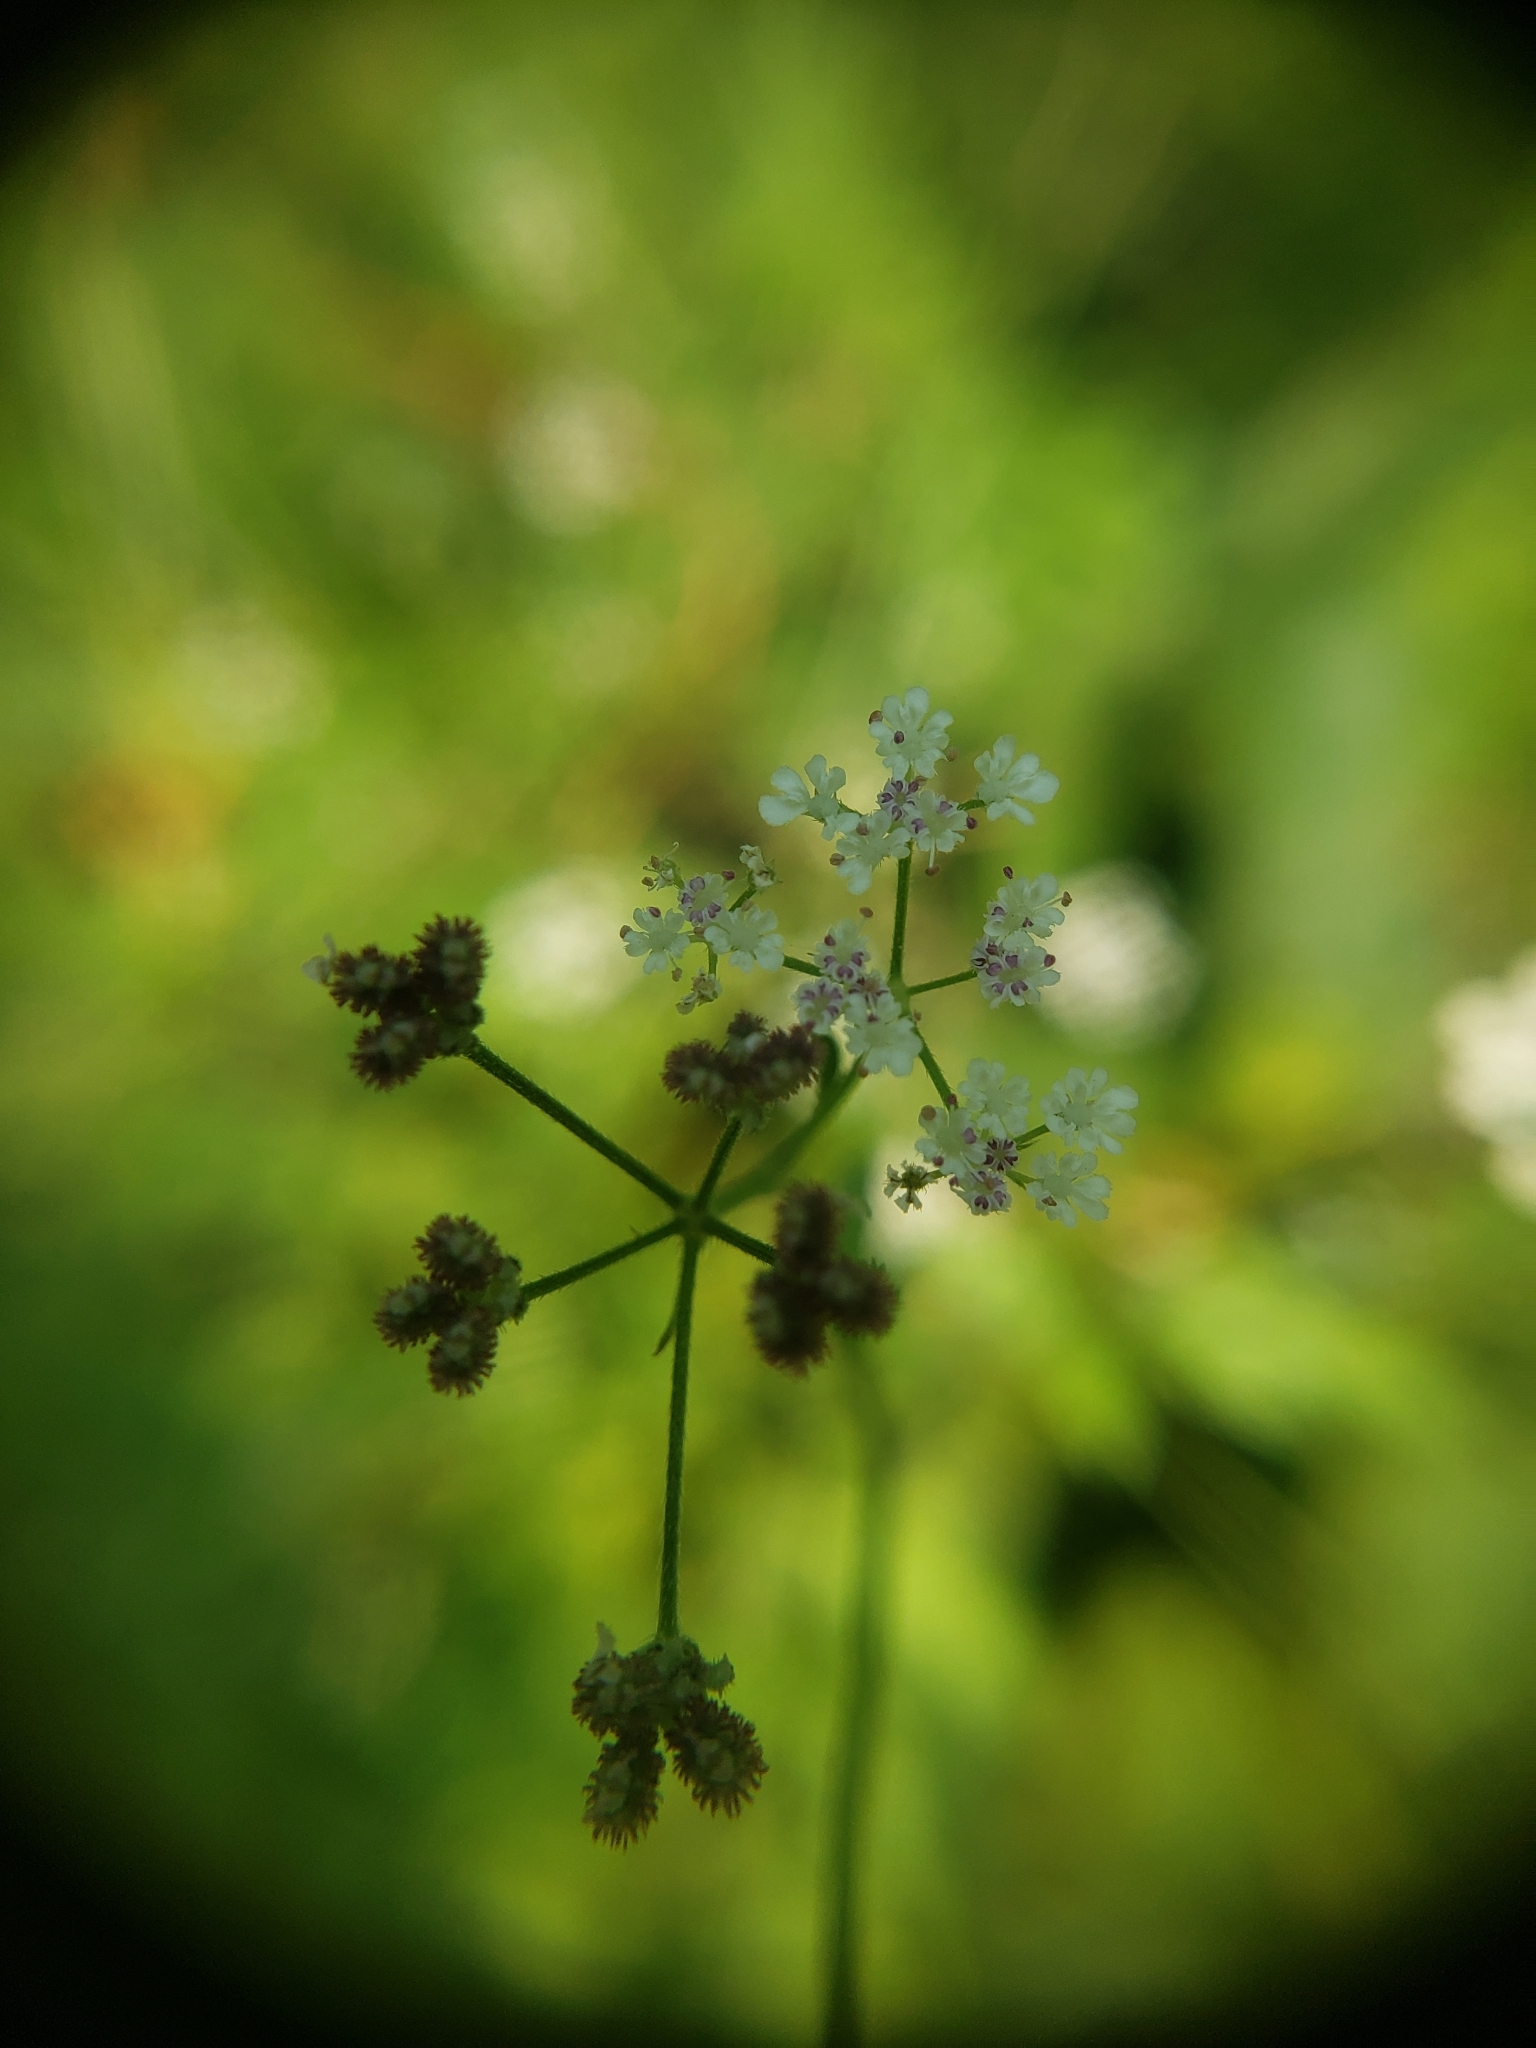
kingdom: Plantae
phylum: Tracheophyta
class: Magnoliopsida
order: Apiales
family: Apiaceae
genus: Torilis
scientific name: Torilis japonica
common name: Upright hedge-parsley
